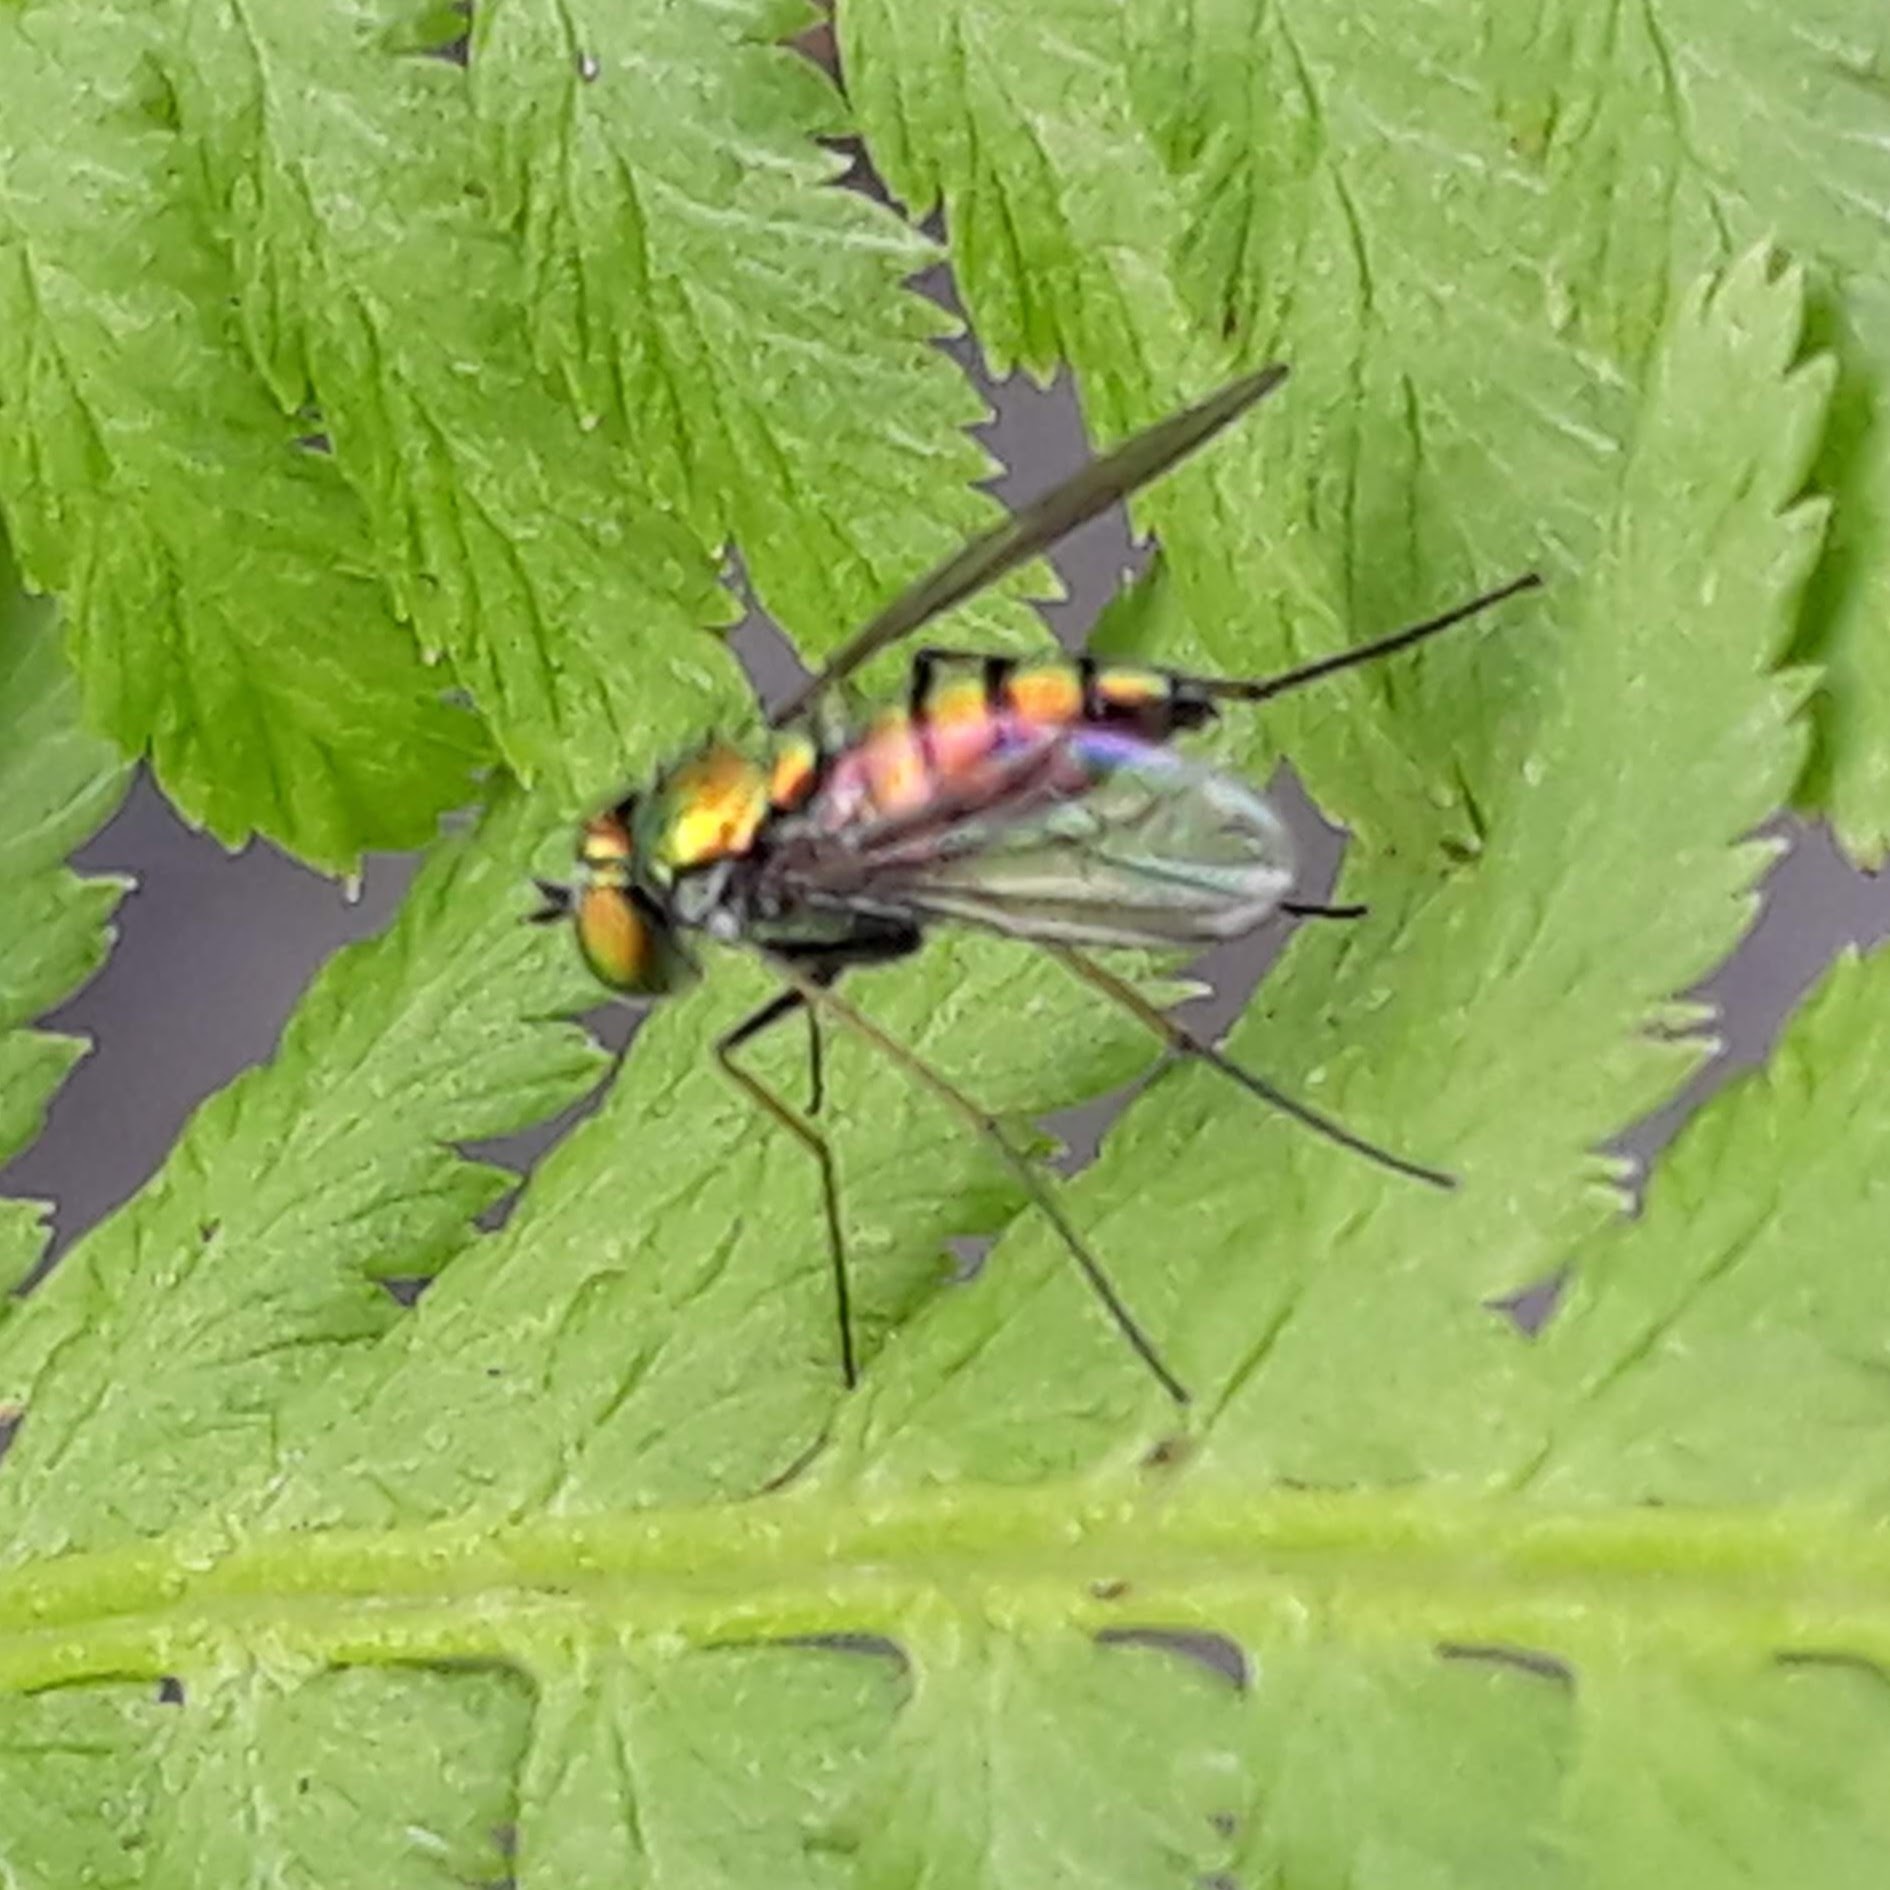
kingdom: Animalia
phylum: Arthropoda
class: Insecta
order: Diptera
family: Dolichopodidae
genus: Condylostylus
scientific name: Condylostylus
